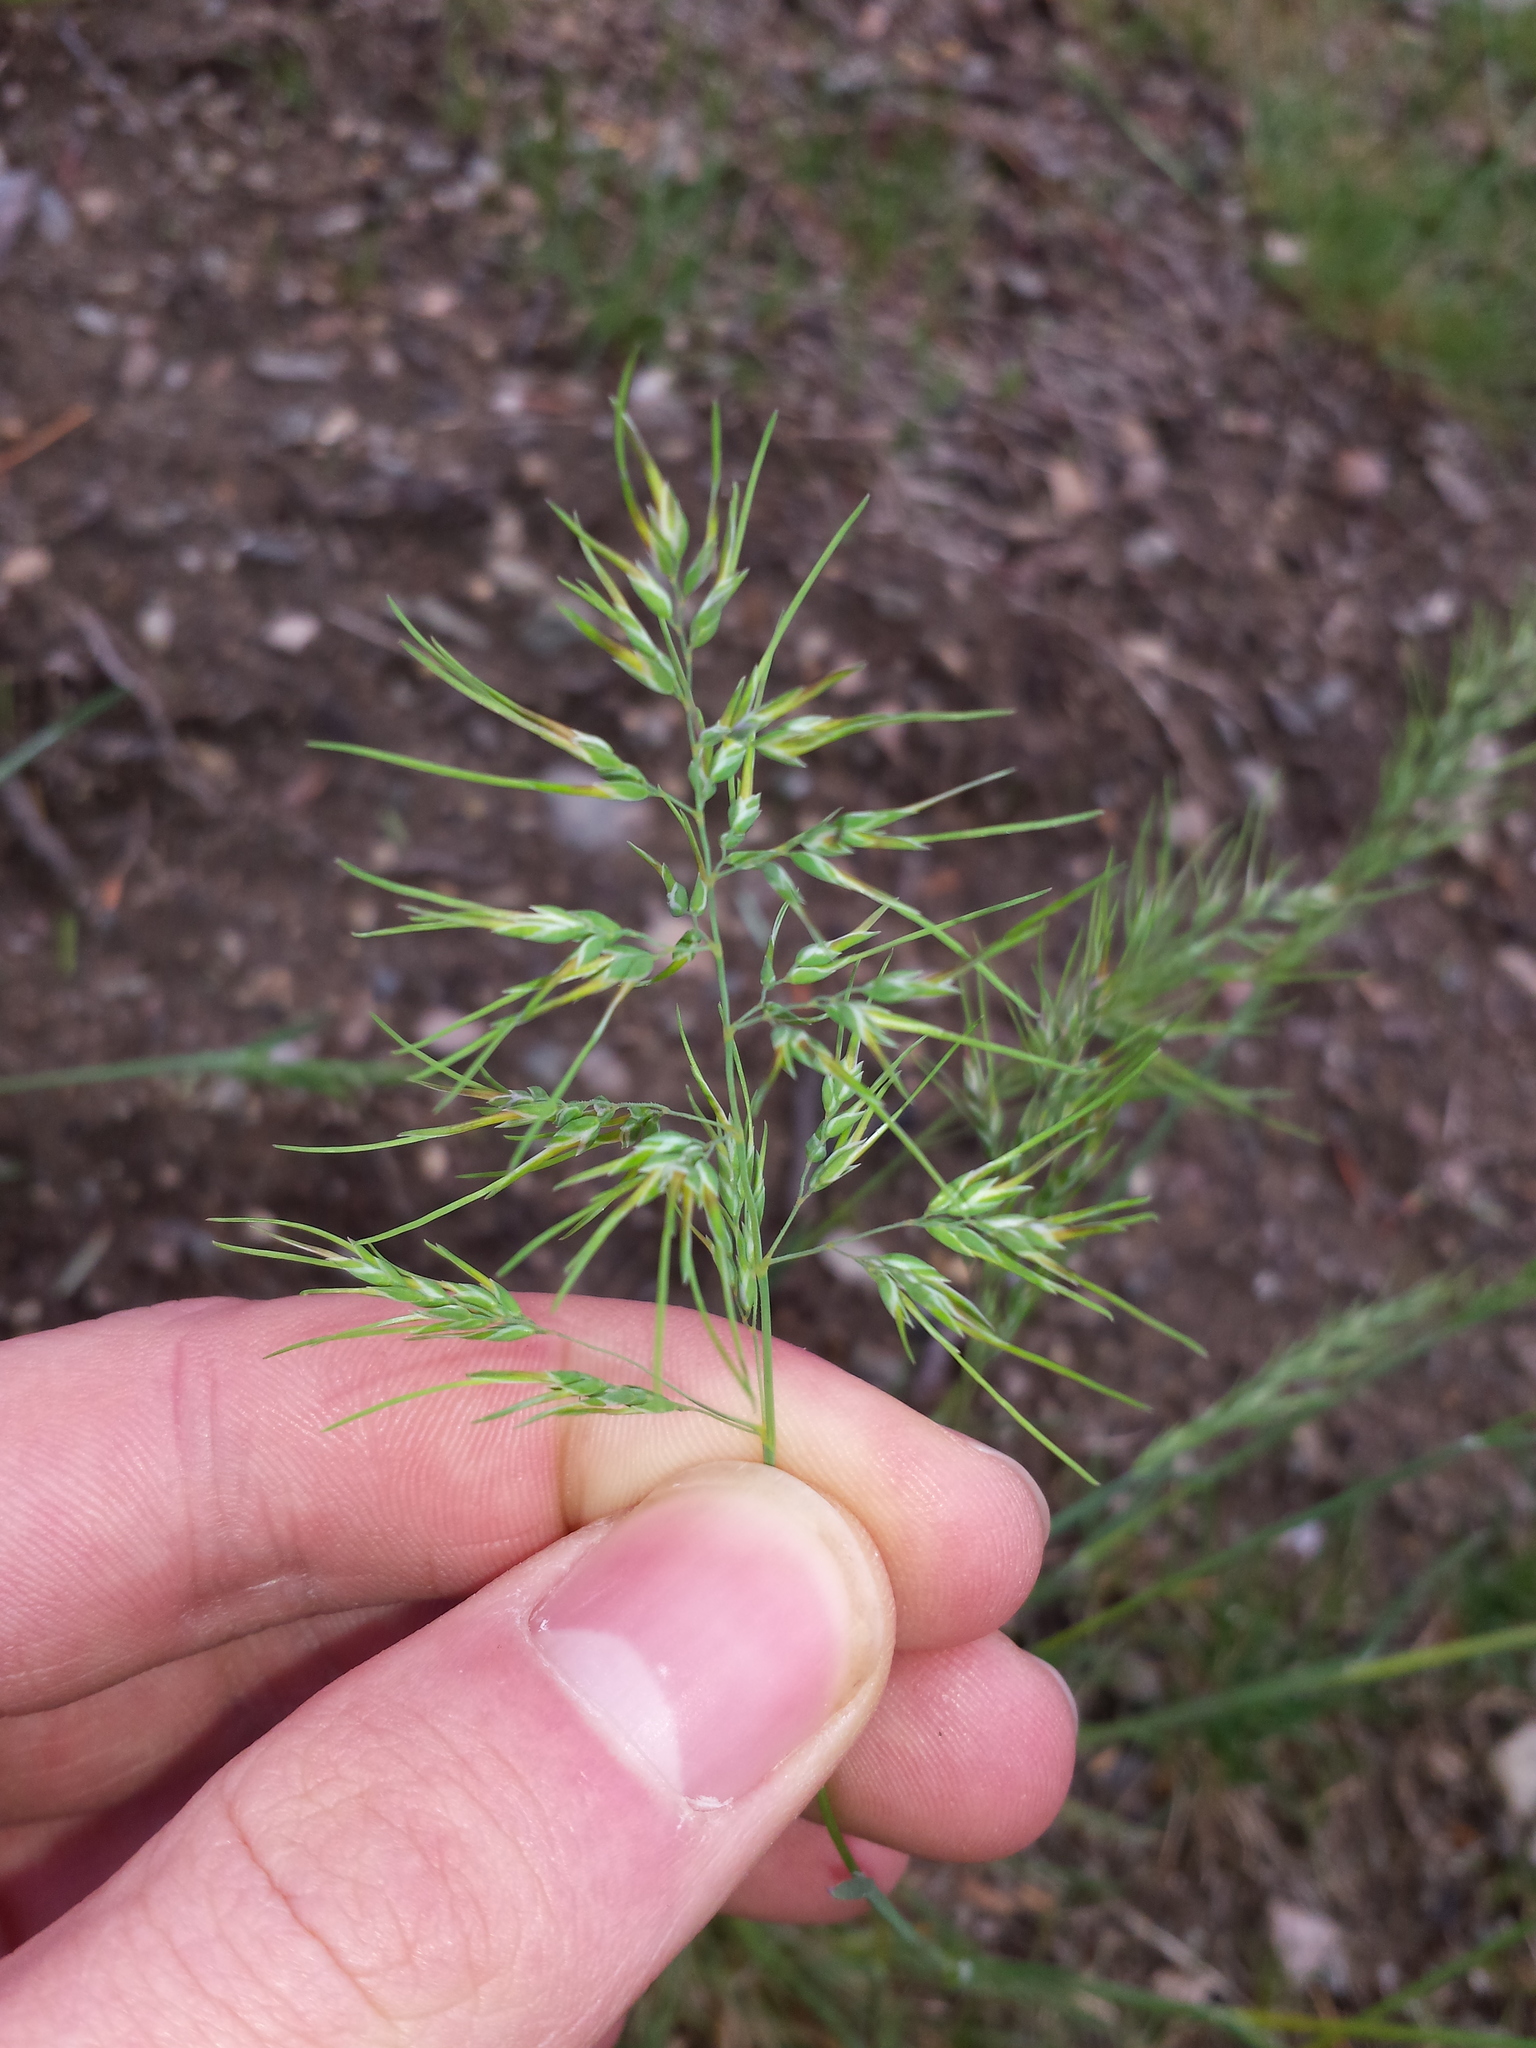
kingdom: Plantae
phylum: Tracheophyta
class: Liliopsida
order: Poales
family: Poaceae
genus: Poa
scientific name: Poa bulbosa
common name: Bulbous bluegrass
